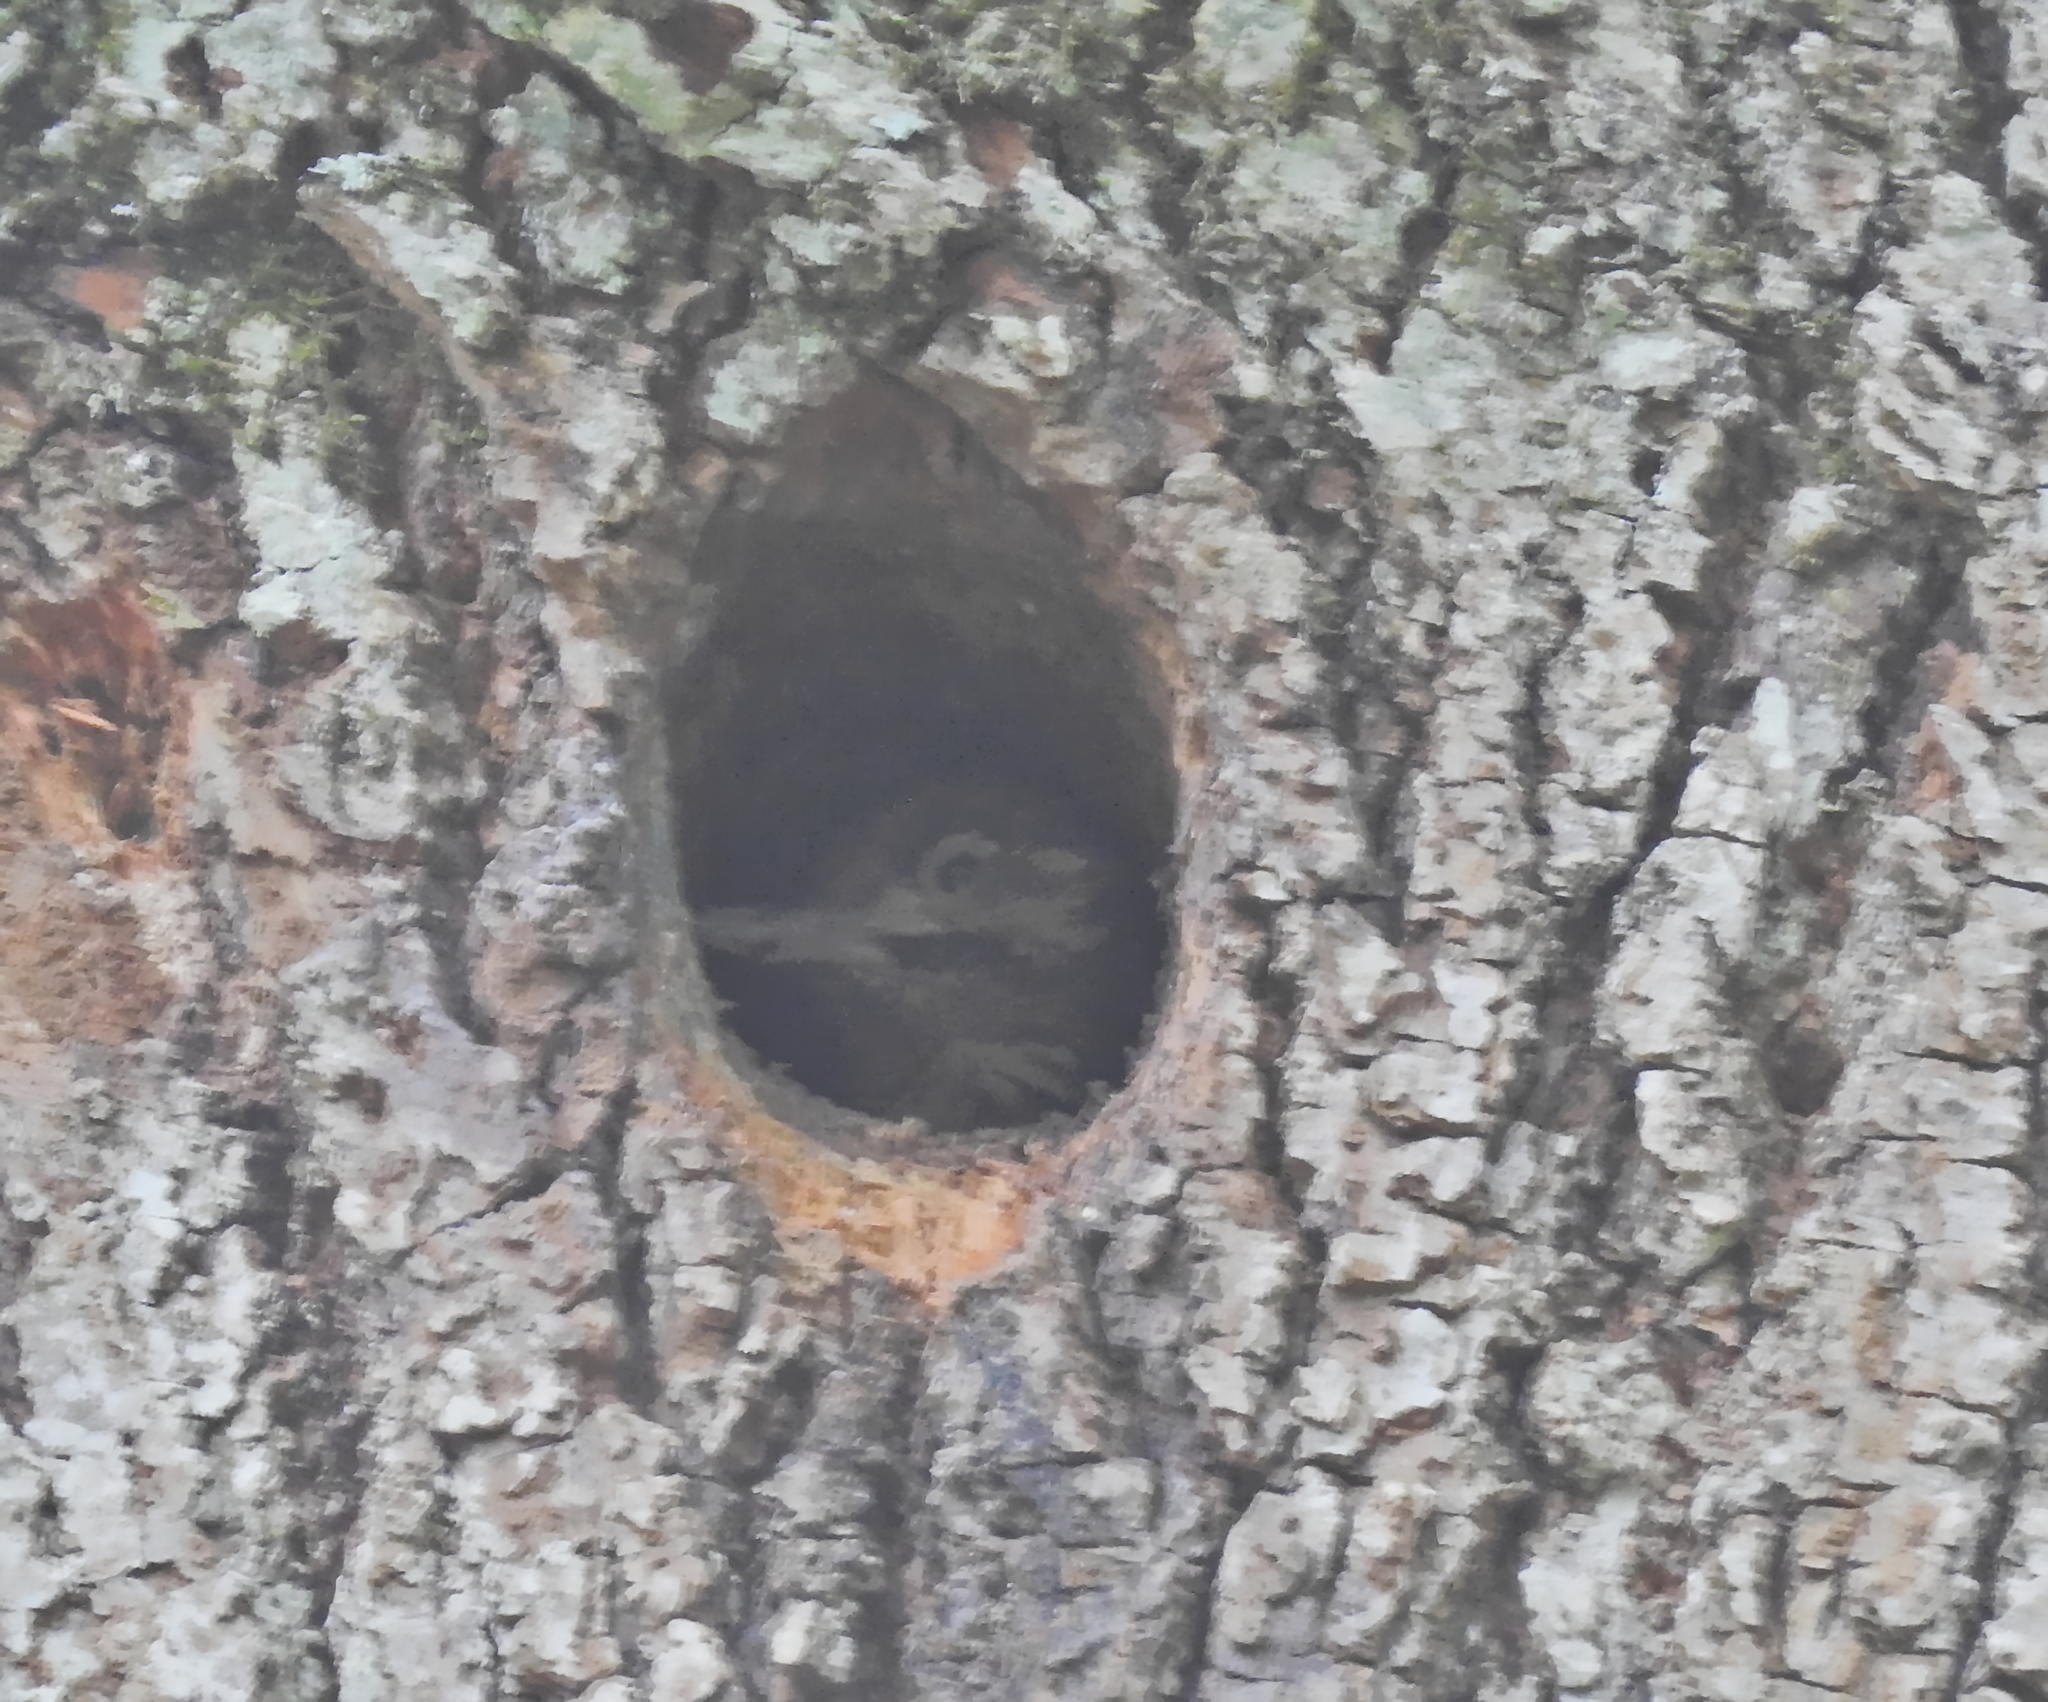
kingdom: Animalia
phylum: Chordata
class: Aves
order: Piciformes
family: Picidae
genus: Dendrocopos
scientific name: Dendrocopos major
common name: Great spotted woodpecker
